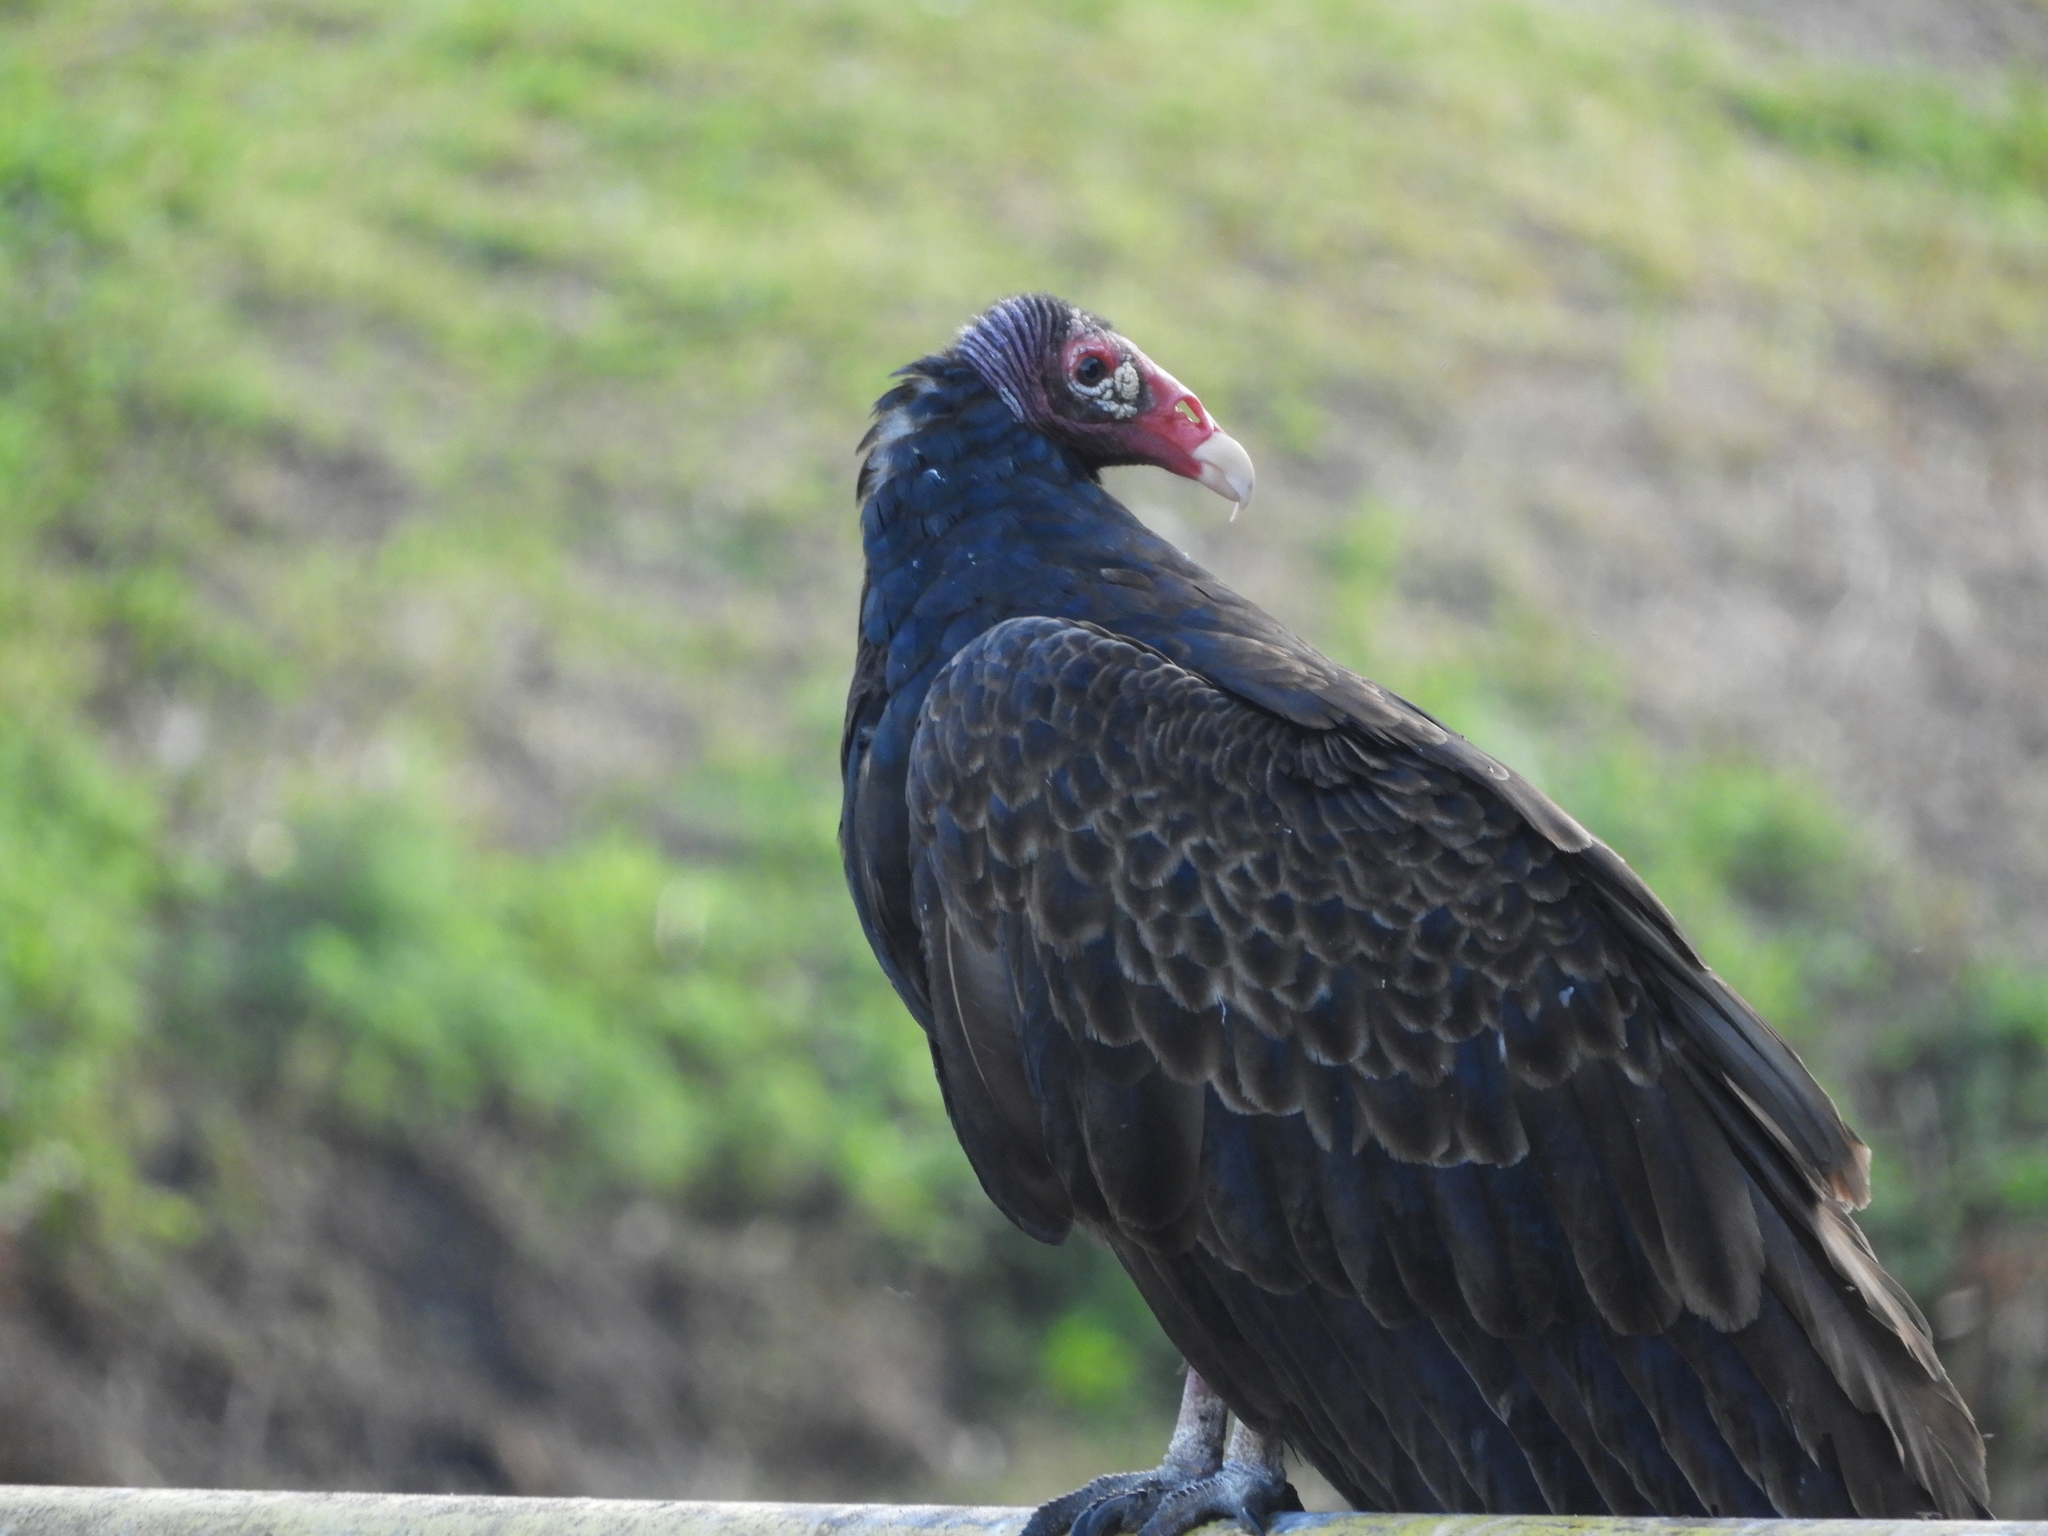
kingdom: Animalia
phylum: Chordata
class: Aves
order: Accipitriformes
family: Cathartidae
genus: Cathartes
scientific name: Cathartes aura
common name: Turkey vulture
